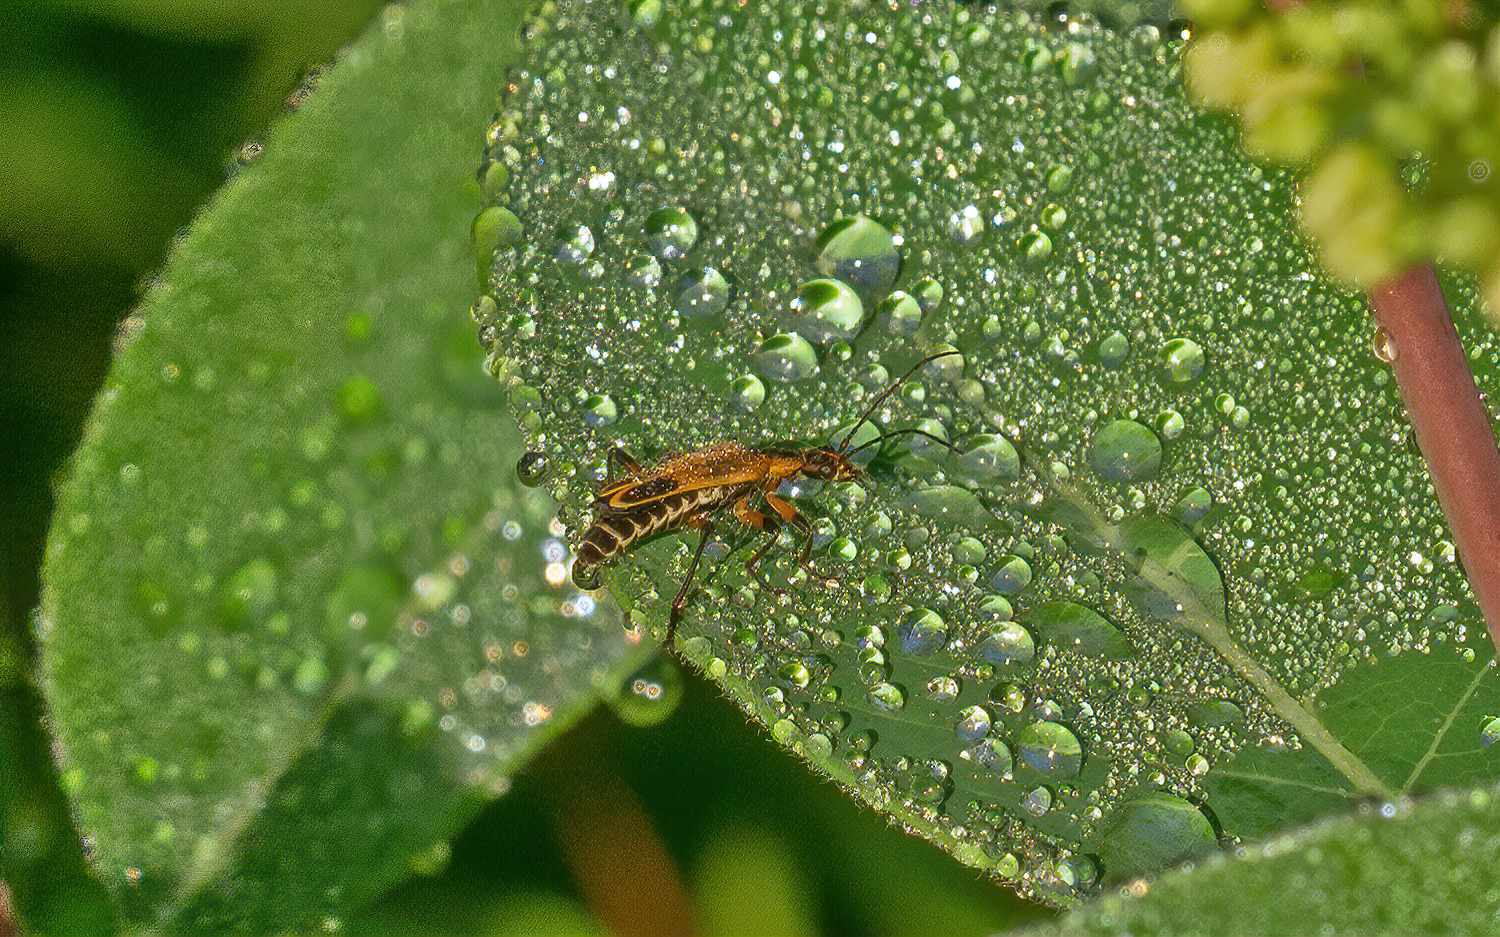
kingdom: Animalia
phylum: Arthropoda
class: Insecta
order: Coleoptera
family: Cantharidae
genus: Chauliognathus
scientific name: Chauliognathus marginatus
